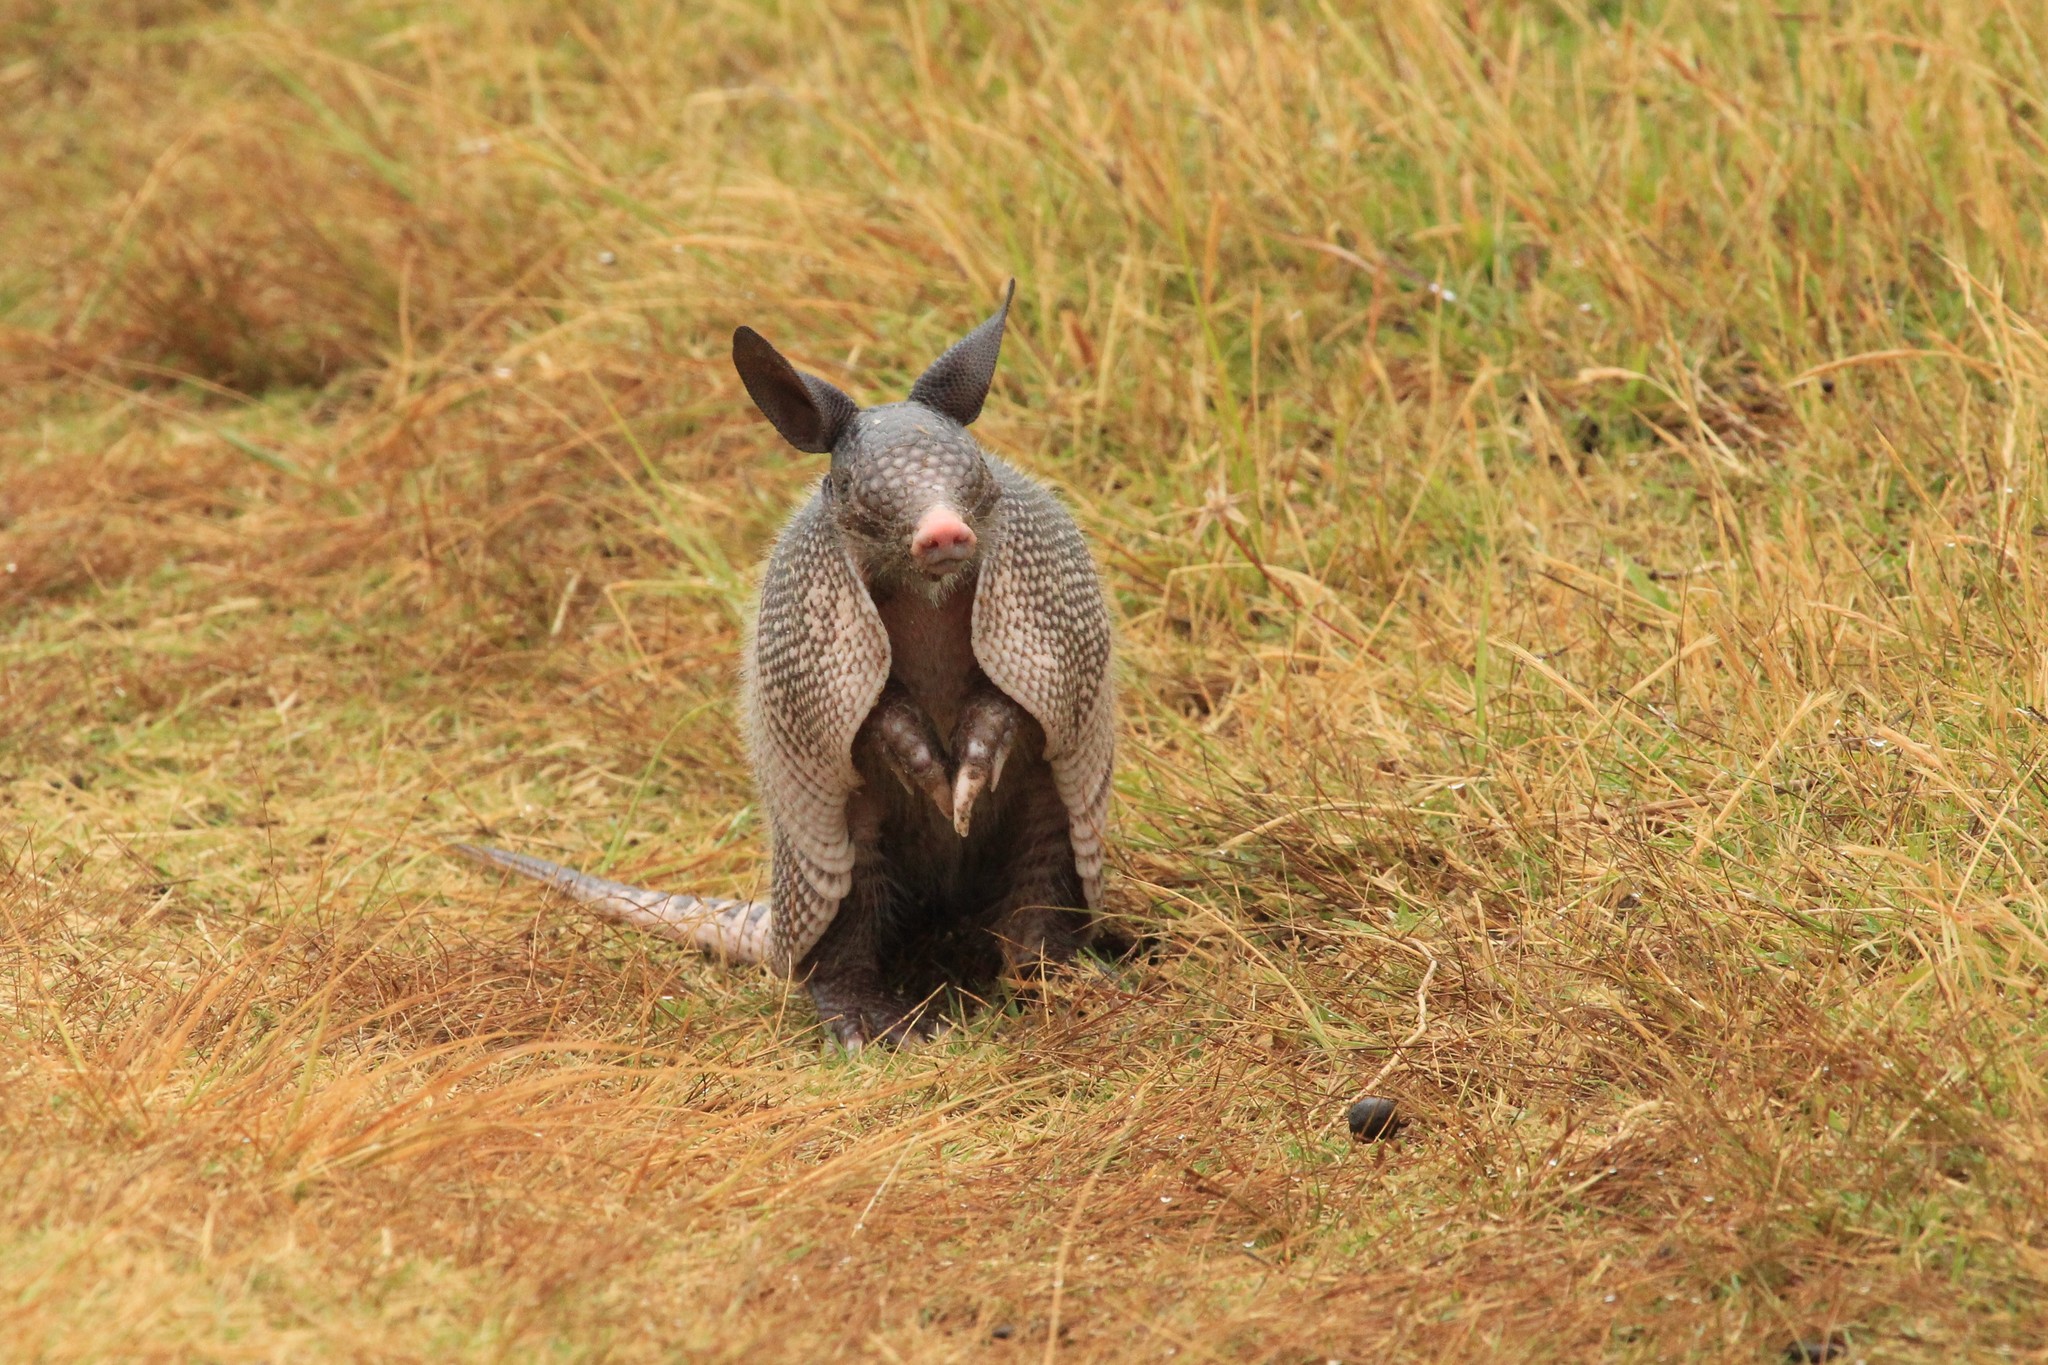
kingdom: Animalia
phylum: Chordata
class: Mammalia
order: Cingulata
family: Dasypodidae
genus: Dasypus
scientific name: Dasypus novemcinctus
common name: Nine-banded armadillo
